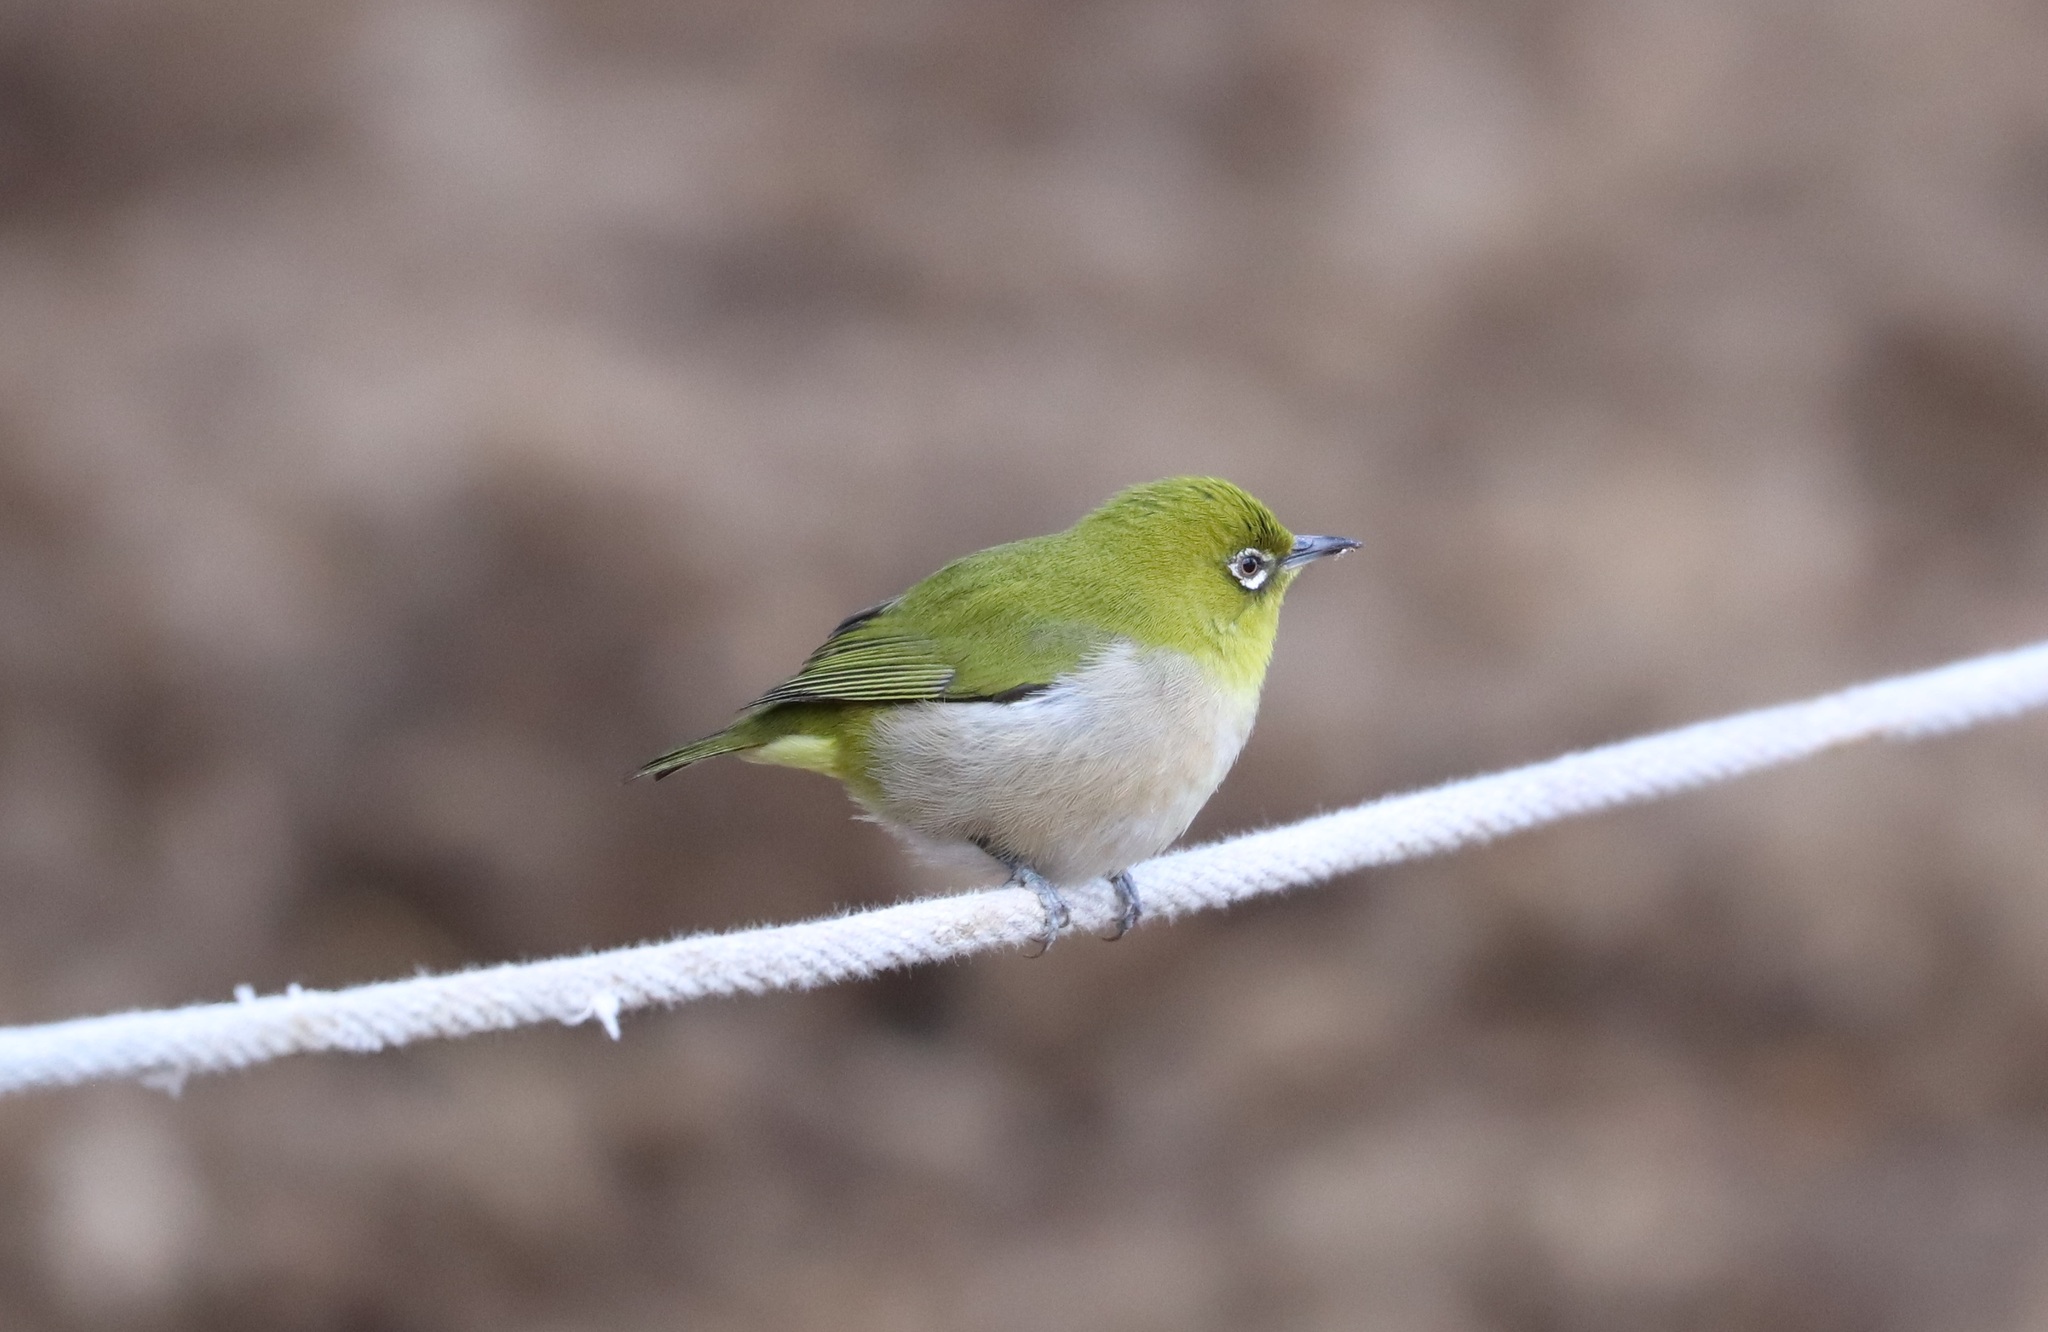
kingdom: Animalia
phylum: Chordata
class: Aves
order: Passeriformes
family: Zosteropidae
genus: Zosterops
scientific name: Zosterops japonicus
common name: Japanese white-eye
